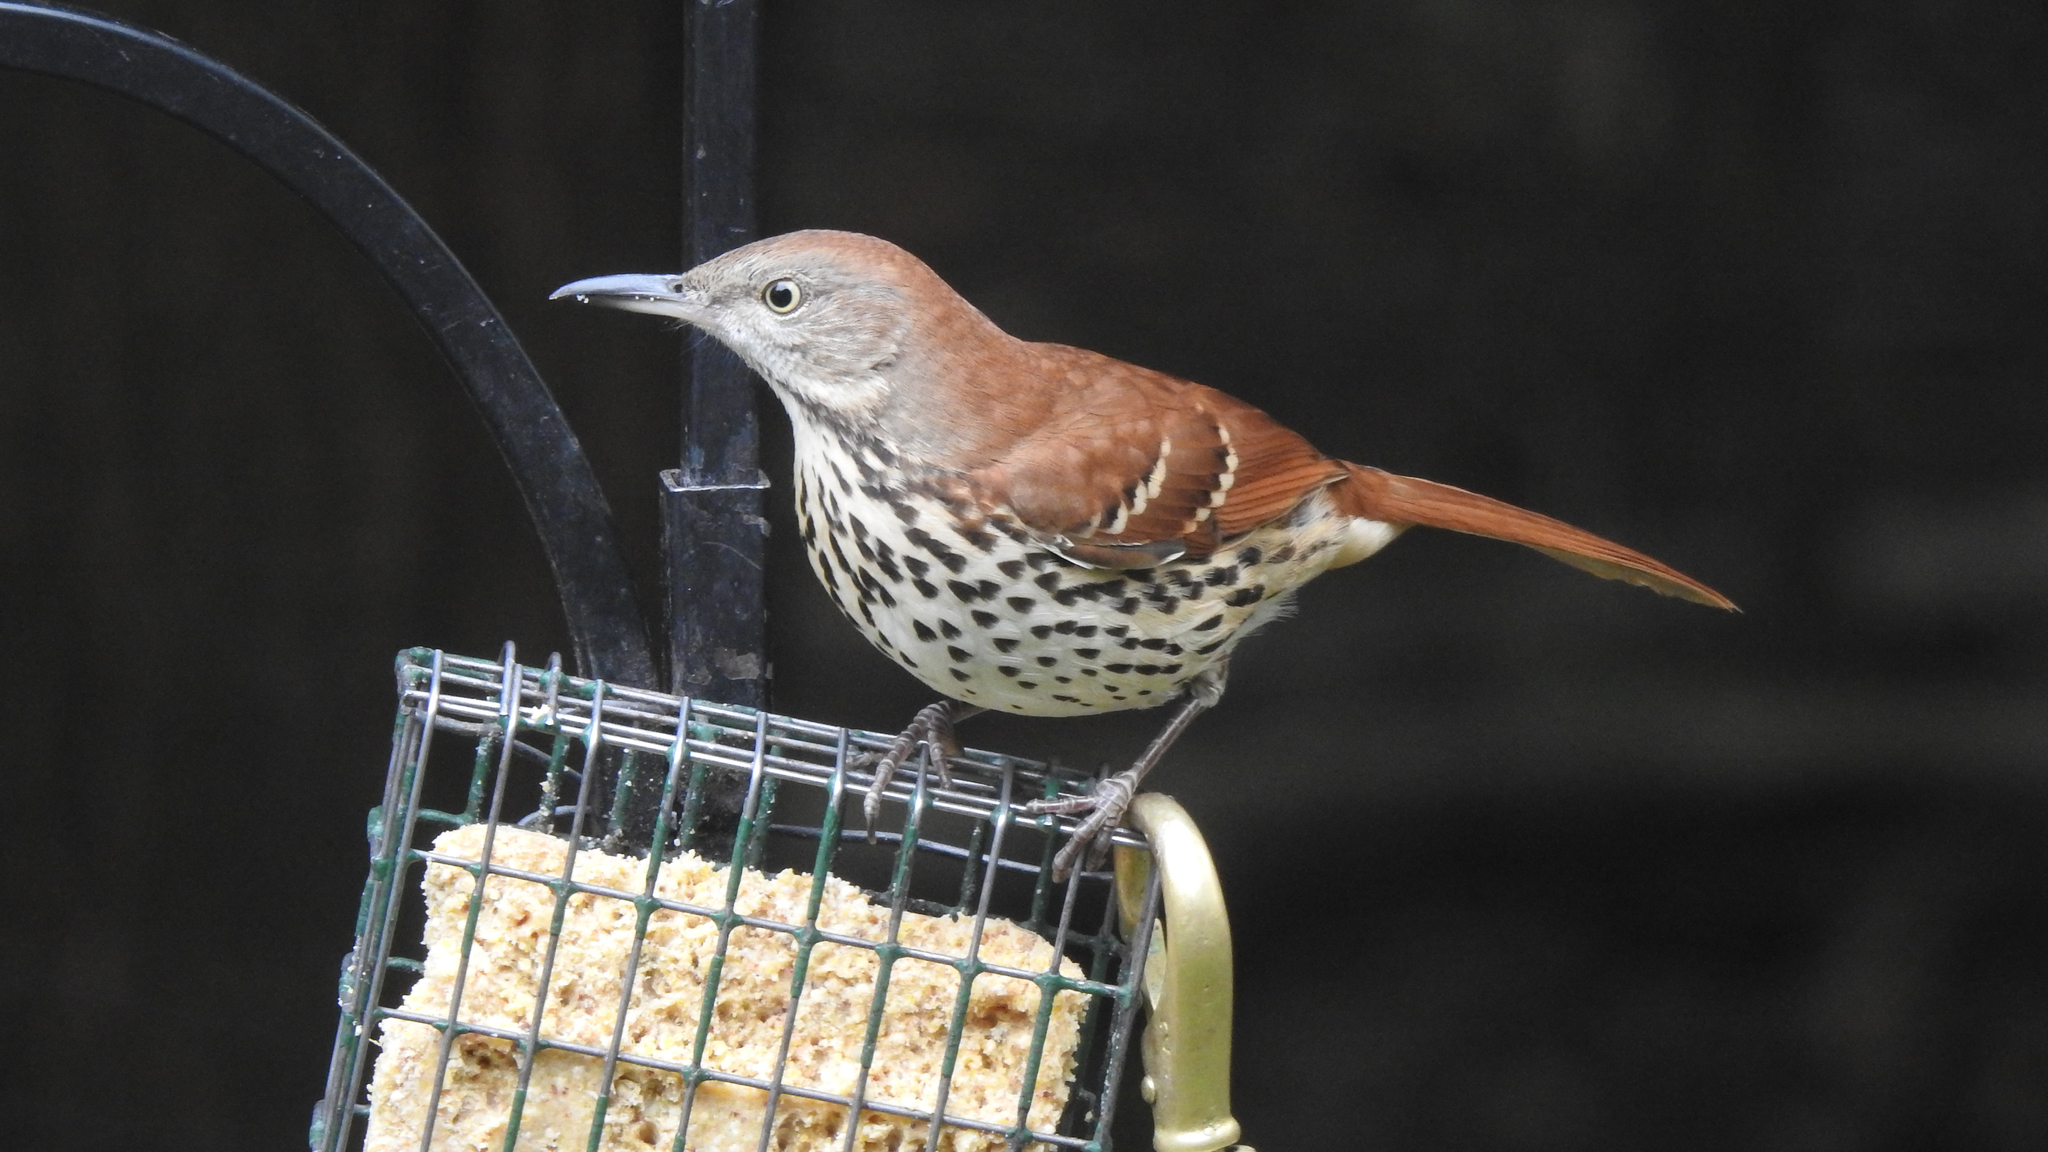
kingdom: Animalia
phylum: Chordata
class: Aves
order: Passeriformes
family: Mimidae
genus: Toxostoma
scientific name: Toxostoma rufum
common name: Brown thrasher
